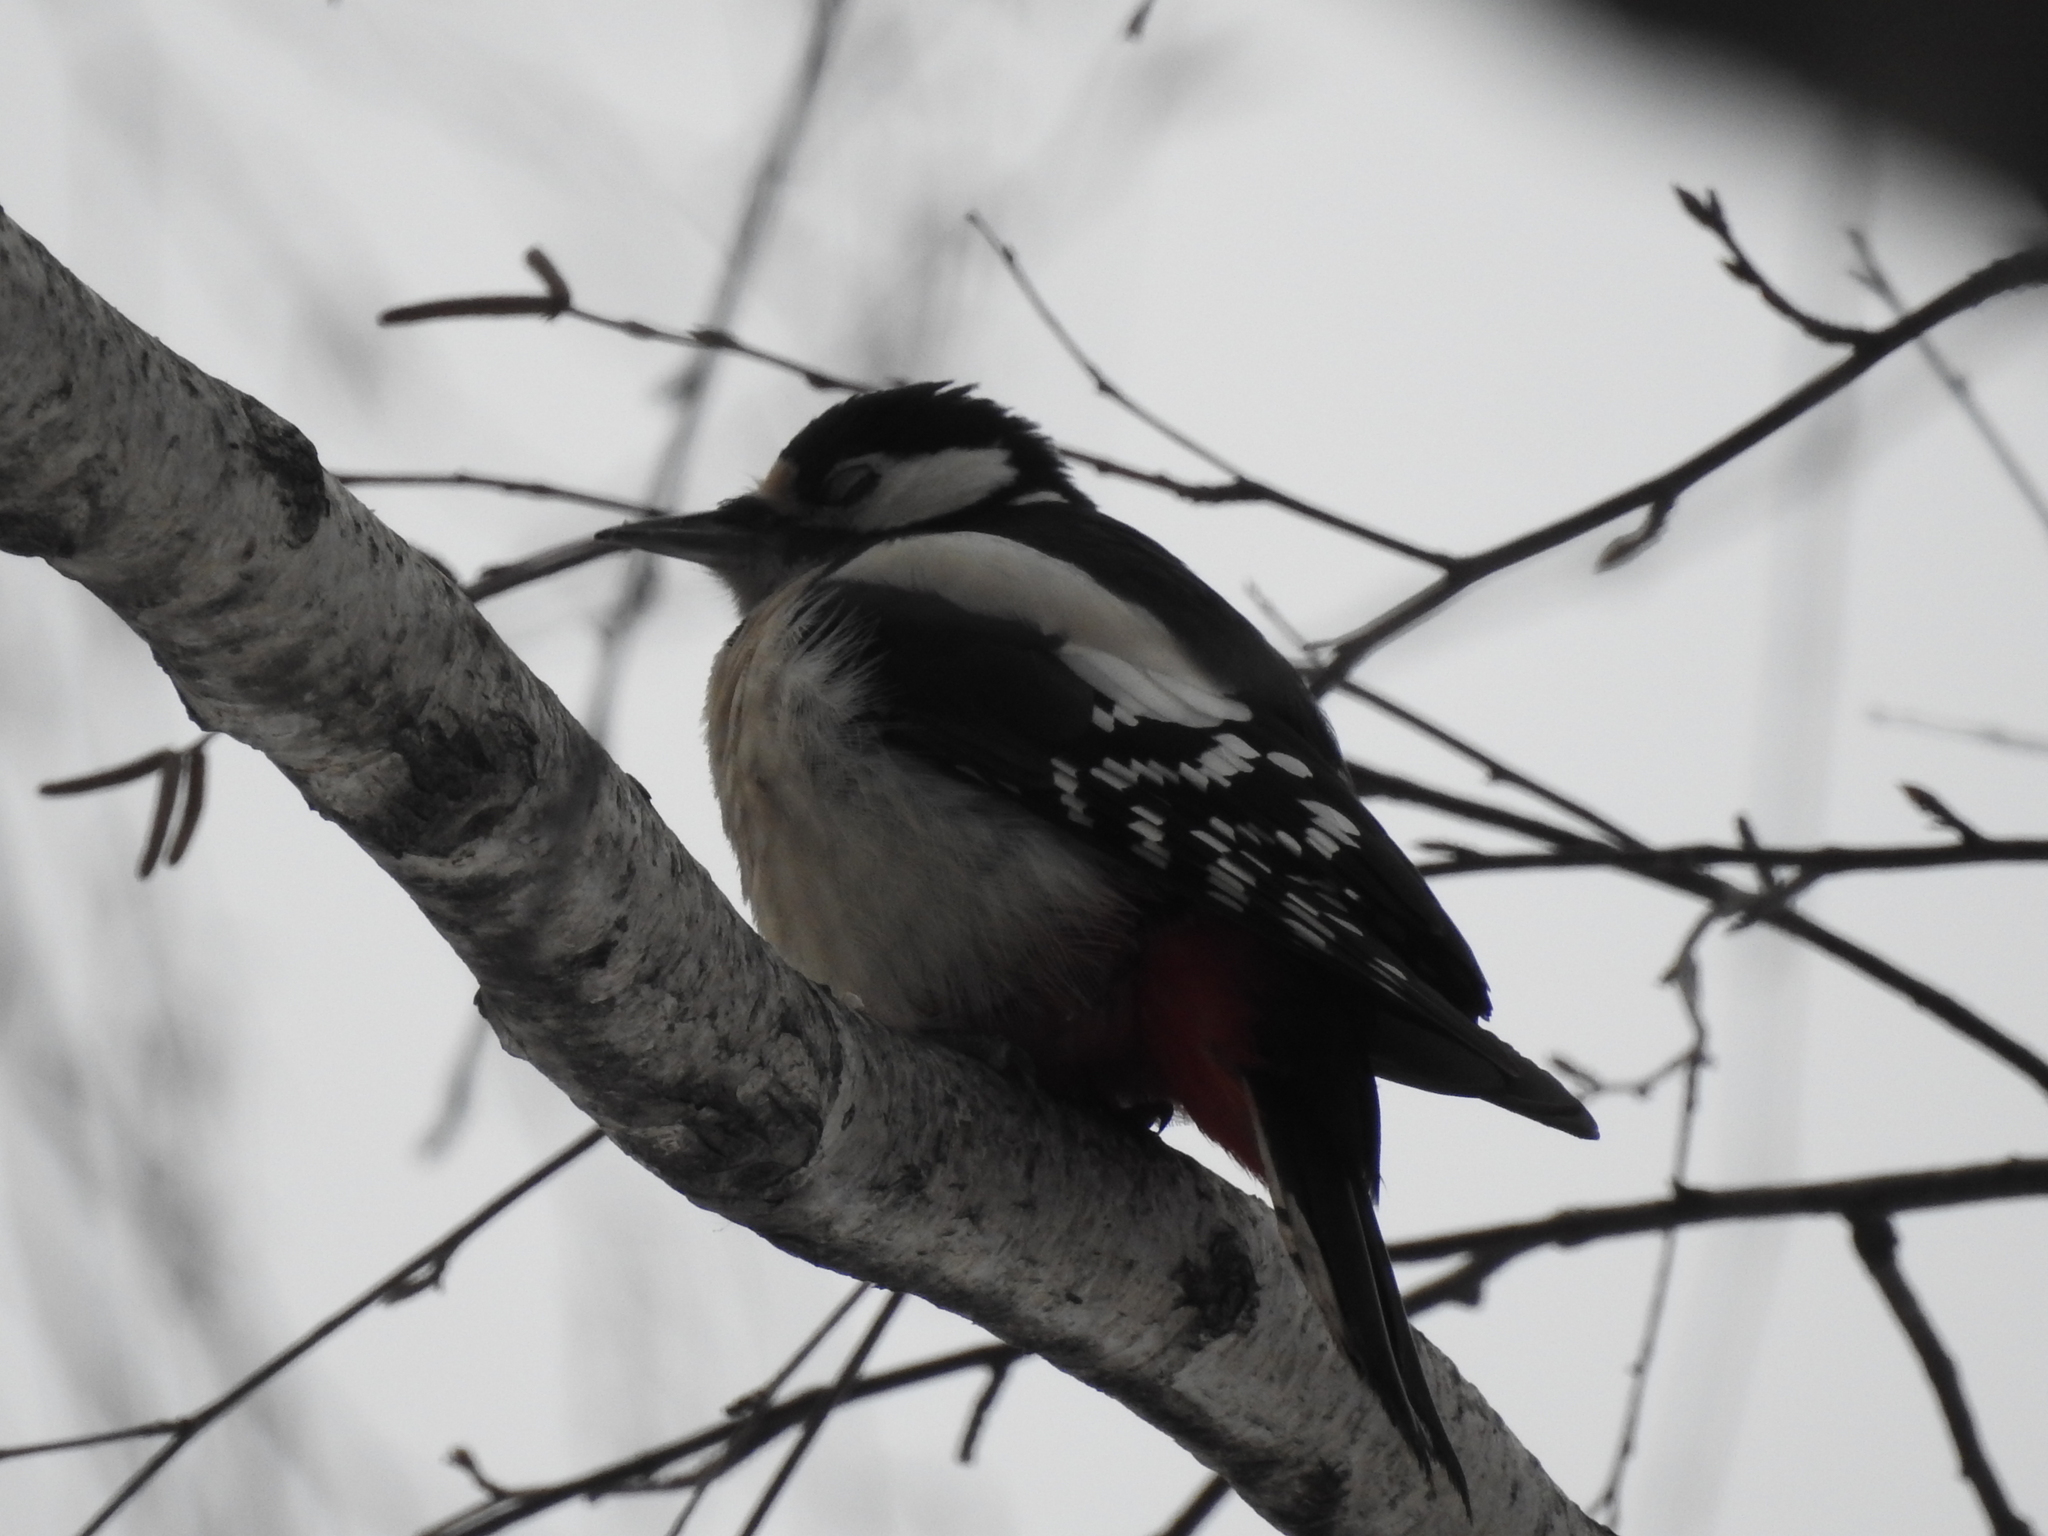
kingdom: Animalia
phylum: Chordata
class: Aves
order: Piciformes
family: Picidae
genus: Dendrocopos
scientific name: Dendrocopos major
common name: Great spotted woodpecker
